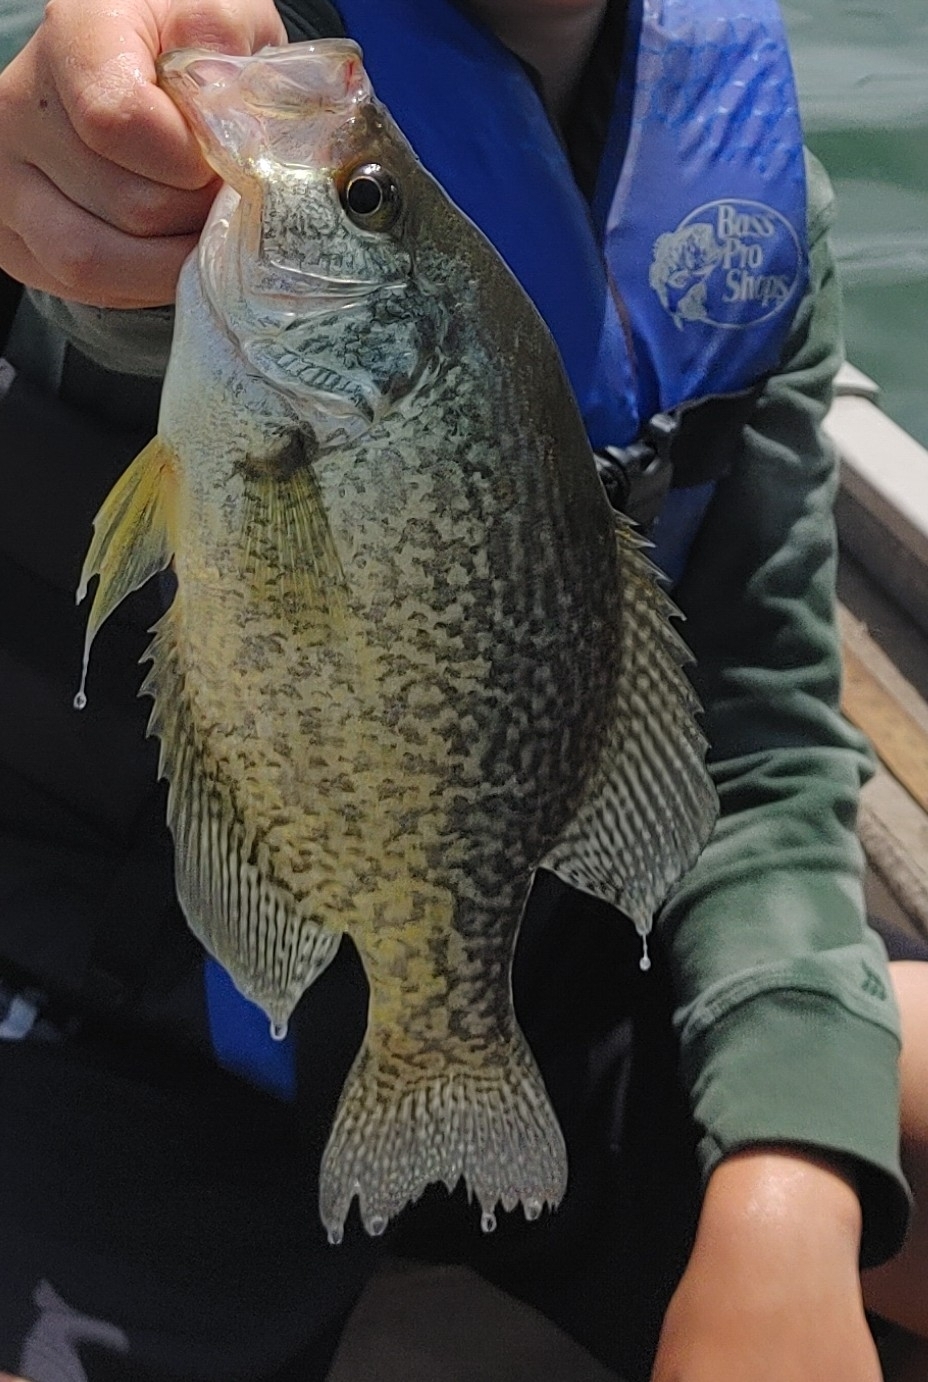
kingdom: Animalia
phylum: Chordata
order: Perciformes
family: Centrarchidae
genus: Pomoxis
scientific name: Pomoxis nigromaculatus
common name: Black crappie
